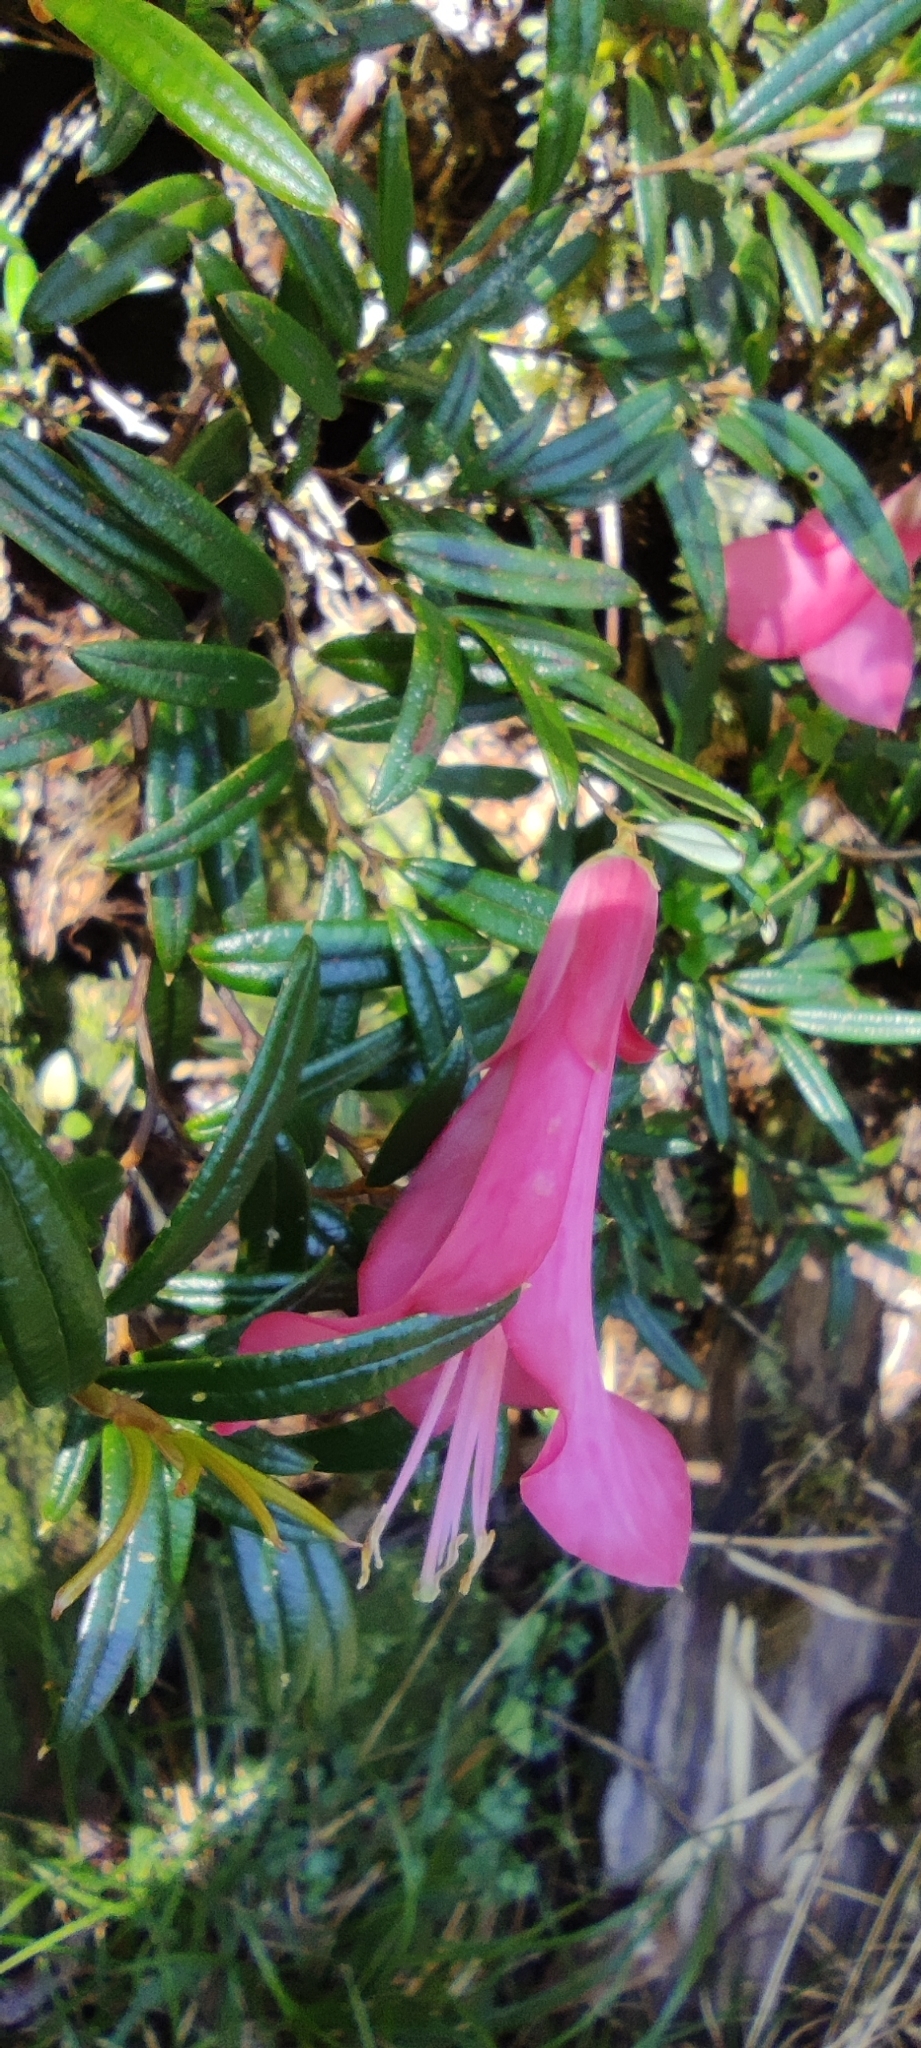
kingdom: Plantae
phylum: Tracheophyta
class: Liliopsida
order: Liliales
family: Philesiaceae
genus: Philesia
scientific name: Philesia magellanica
